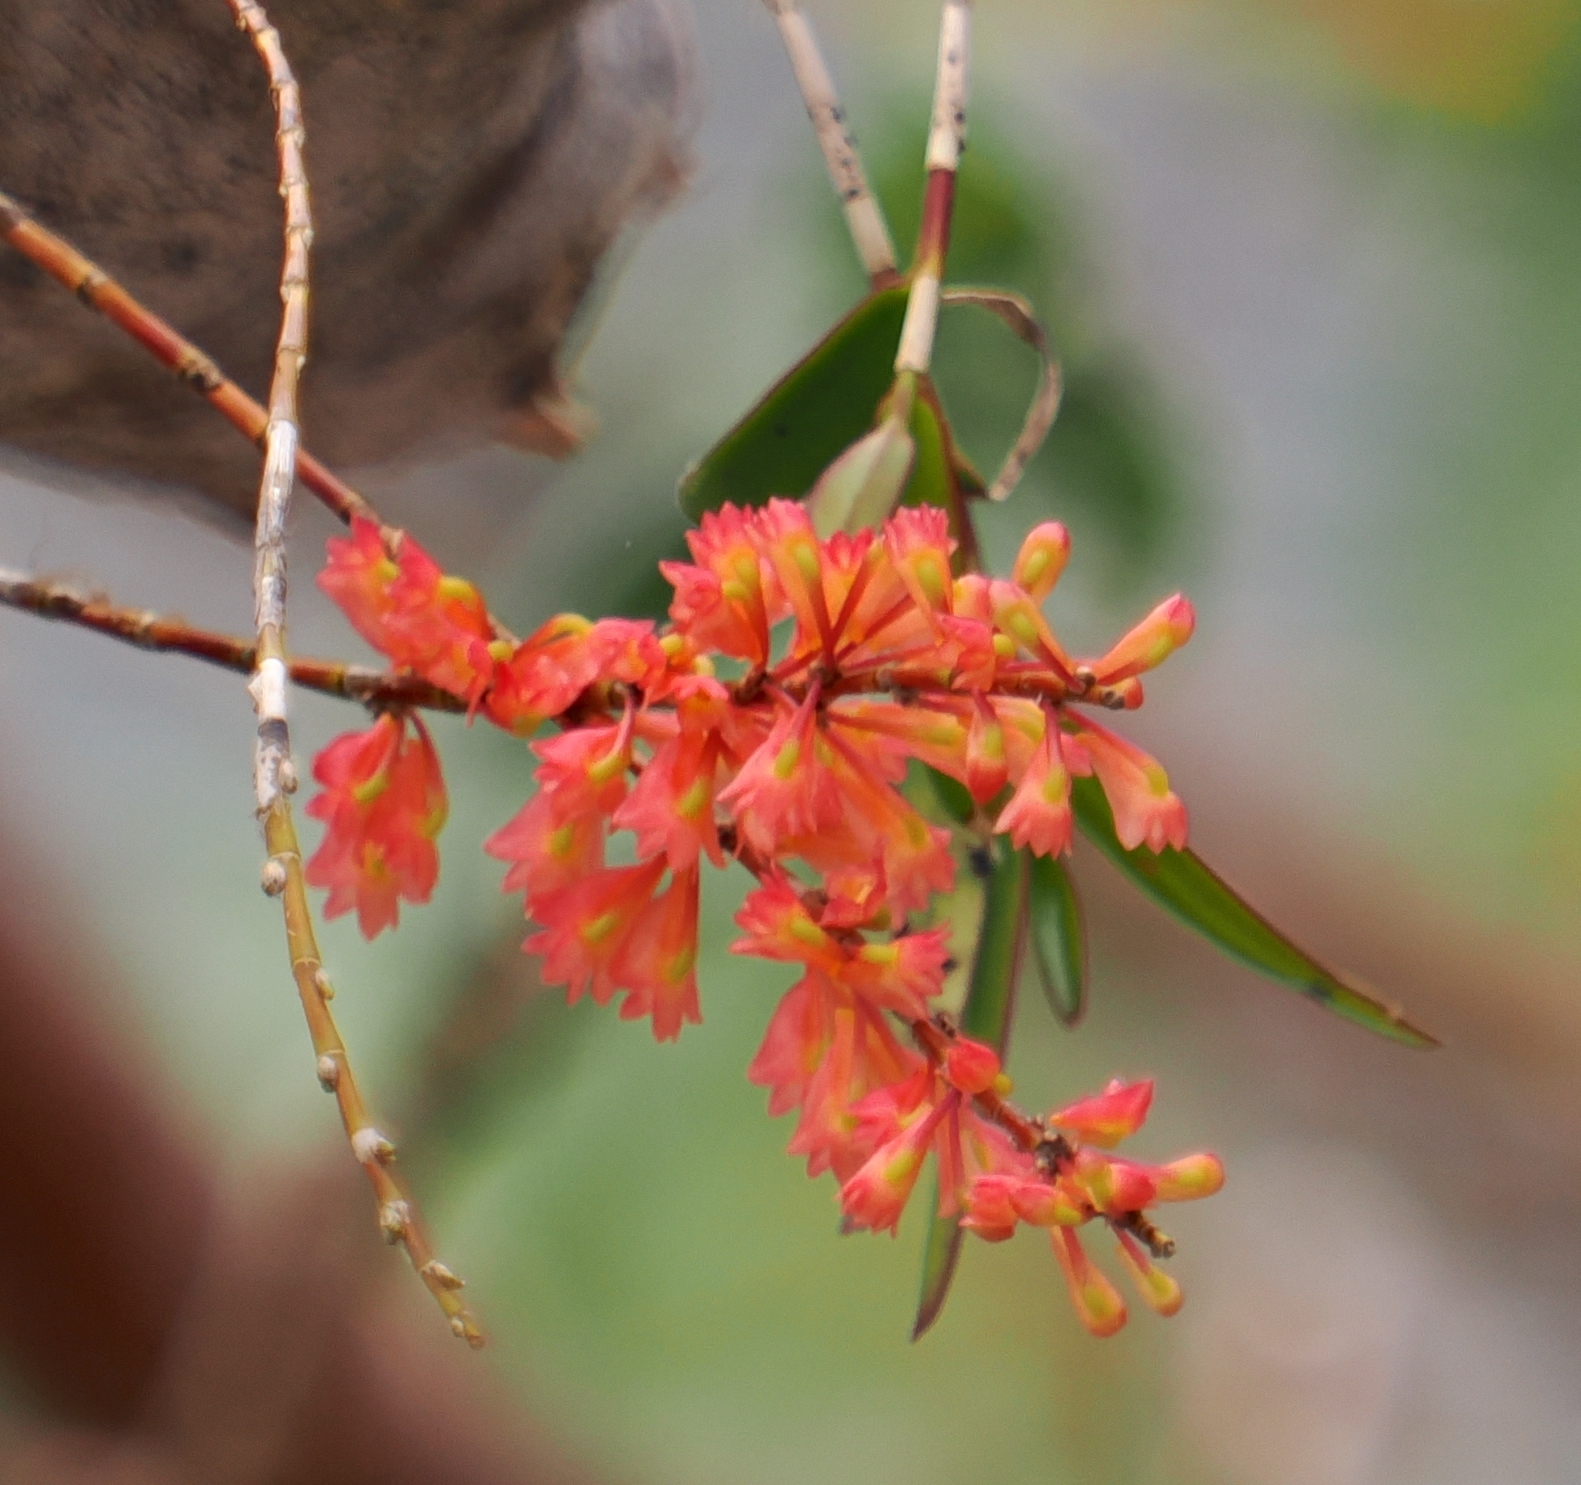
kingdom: Plantae
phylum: Tracheophyta
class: Liliopsida
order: Asparagales
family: Orchidaceae
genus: Dendrobium
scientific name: Dendrobium faciferum
